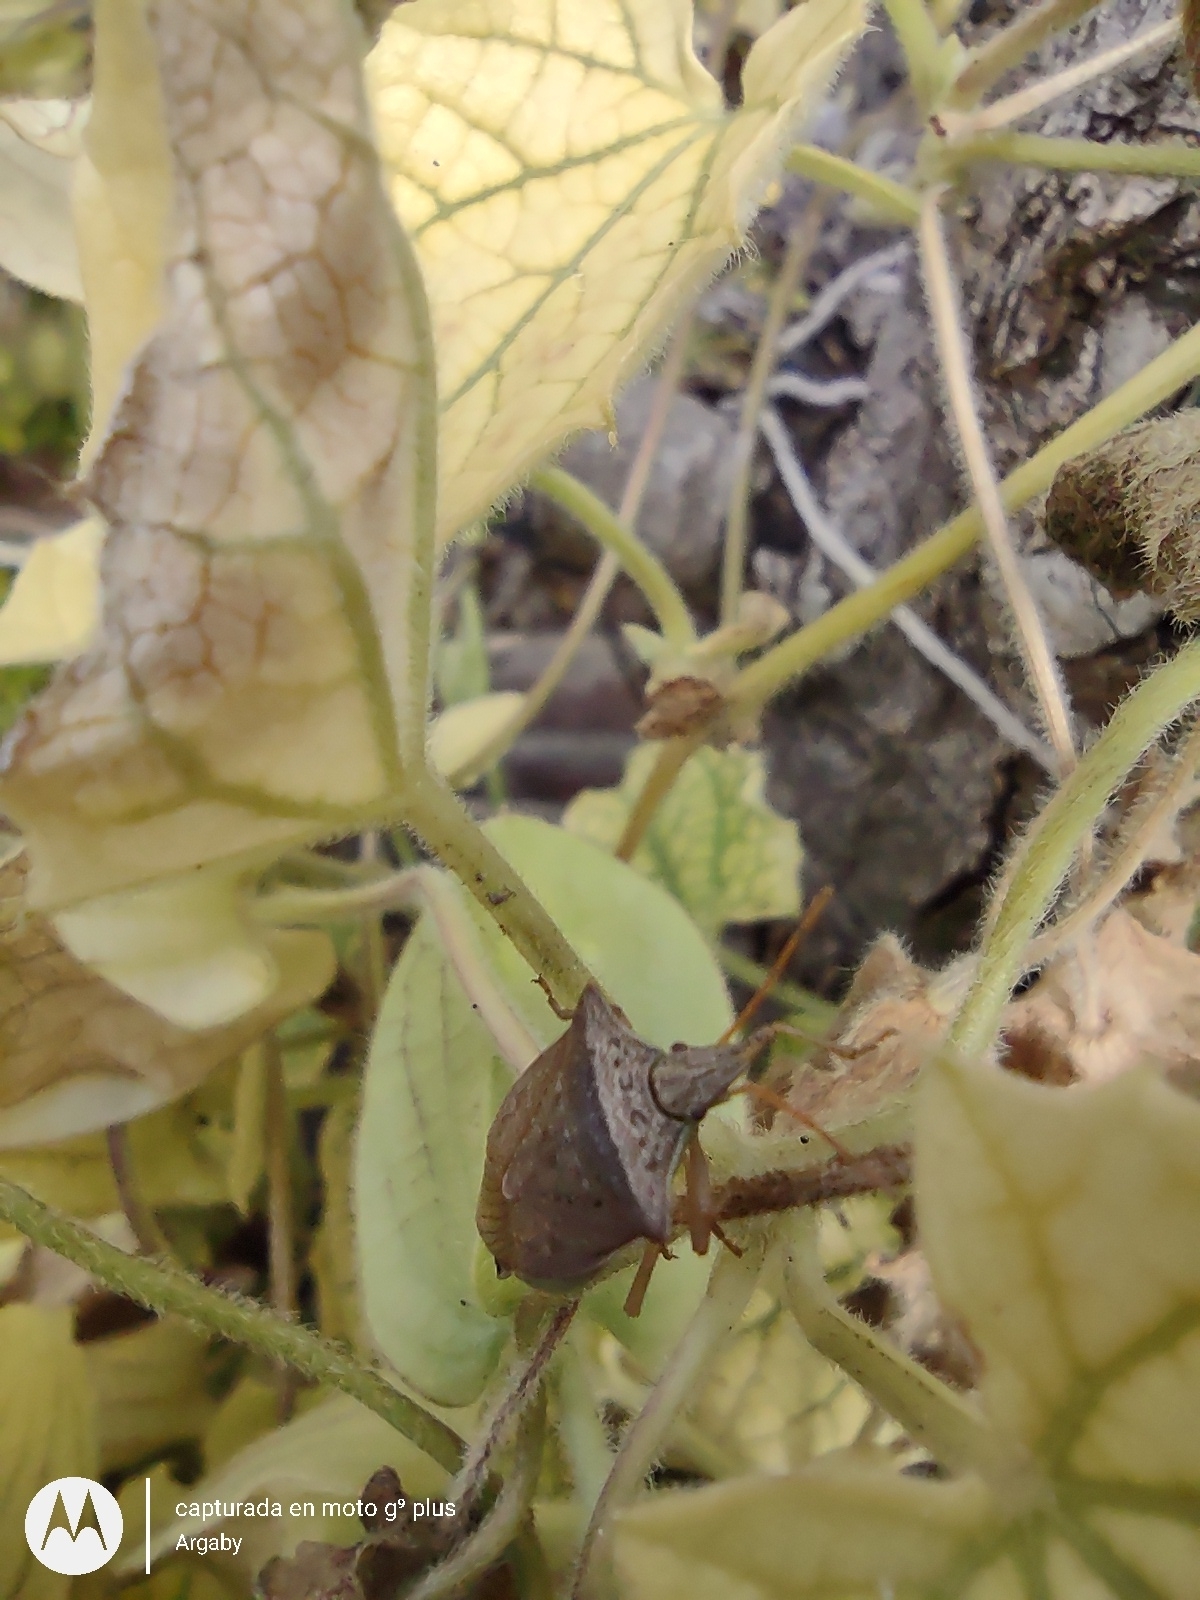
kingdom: Animalia
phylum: Arthropoda
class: Insecta
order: Hemiptera
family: Pentatomidae
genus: Diceraeus
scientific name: Diceraeus furcatus
